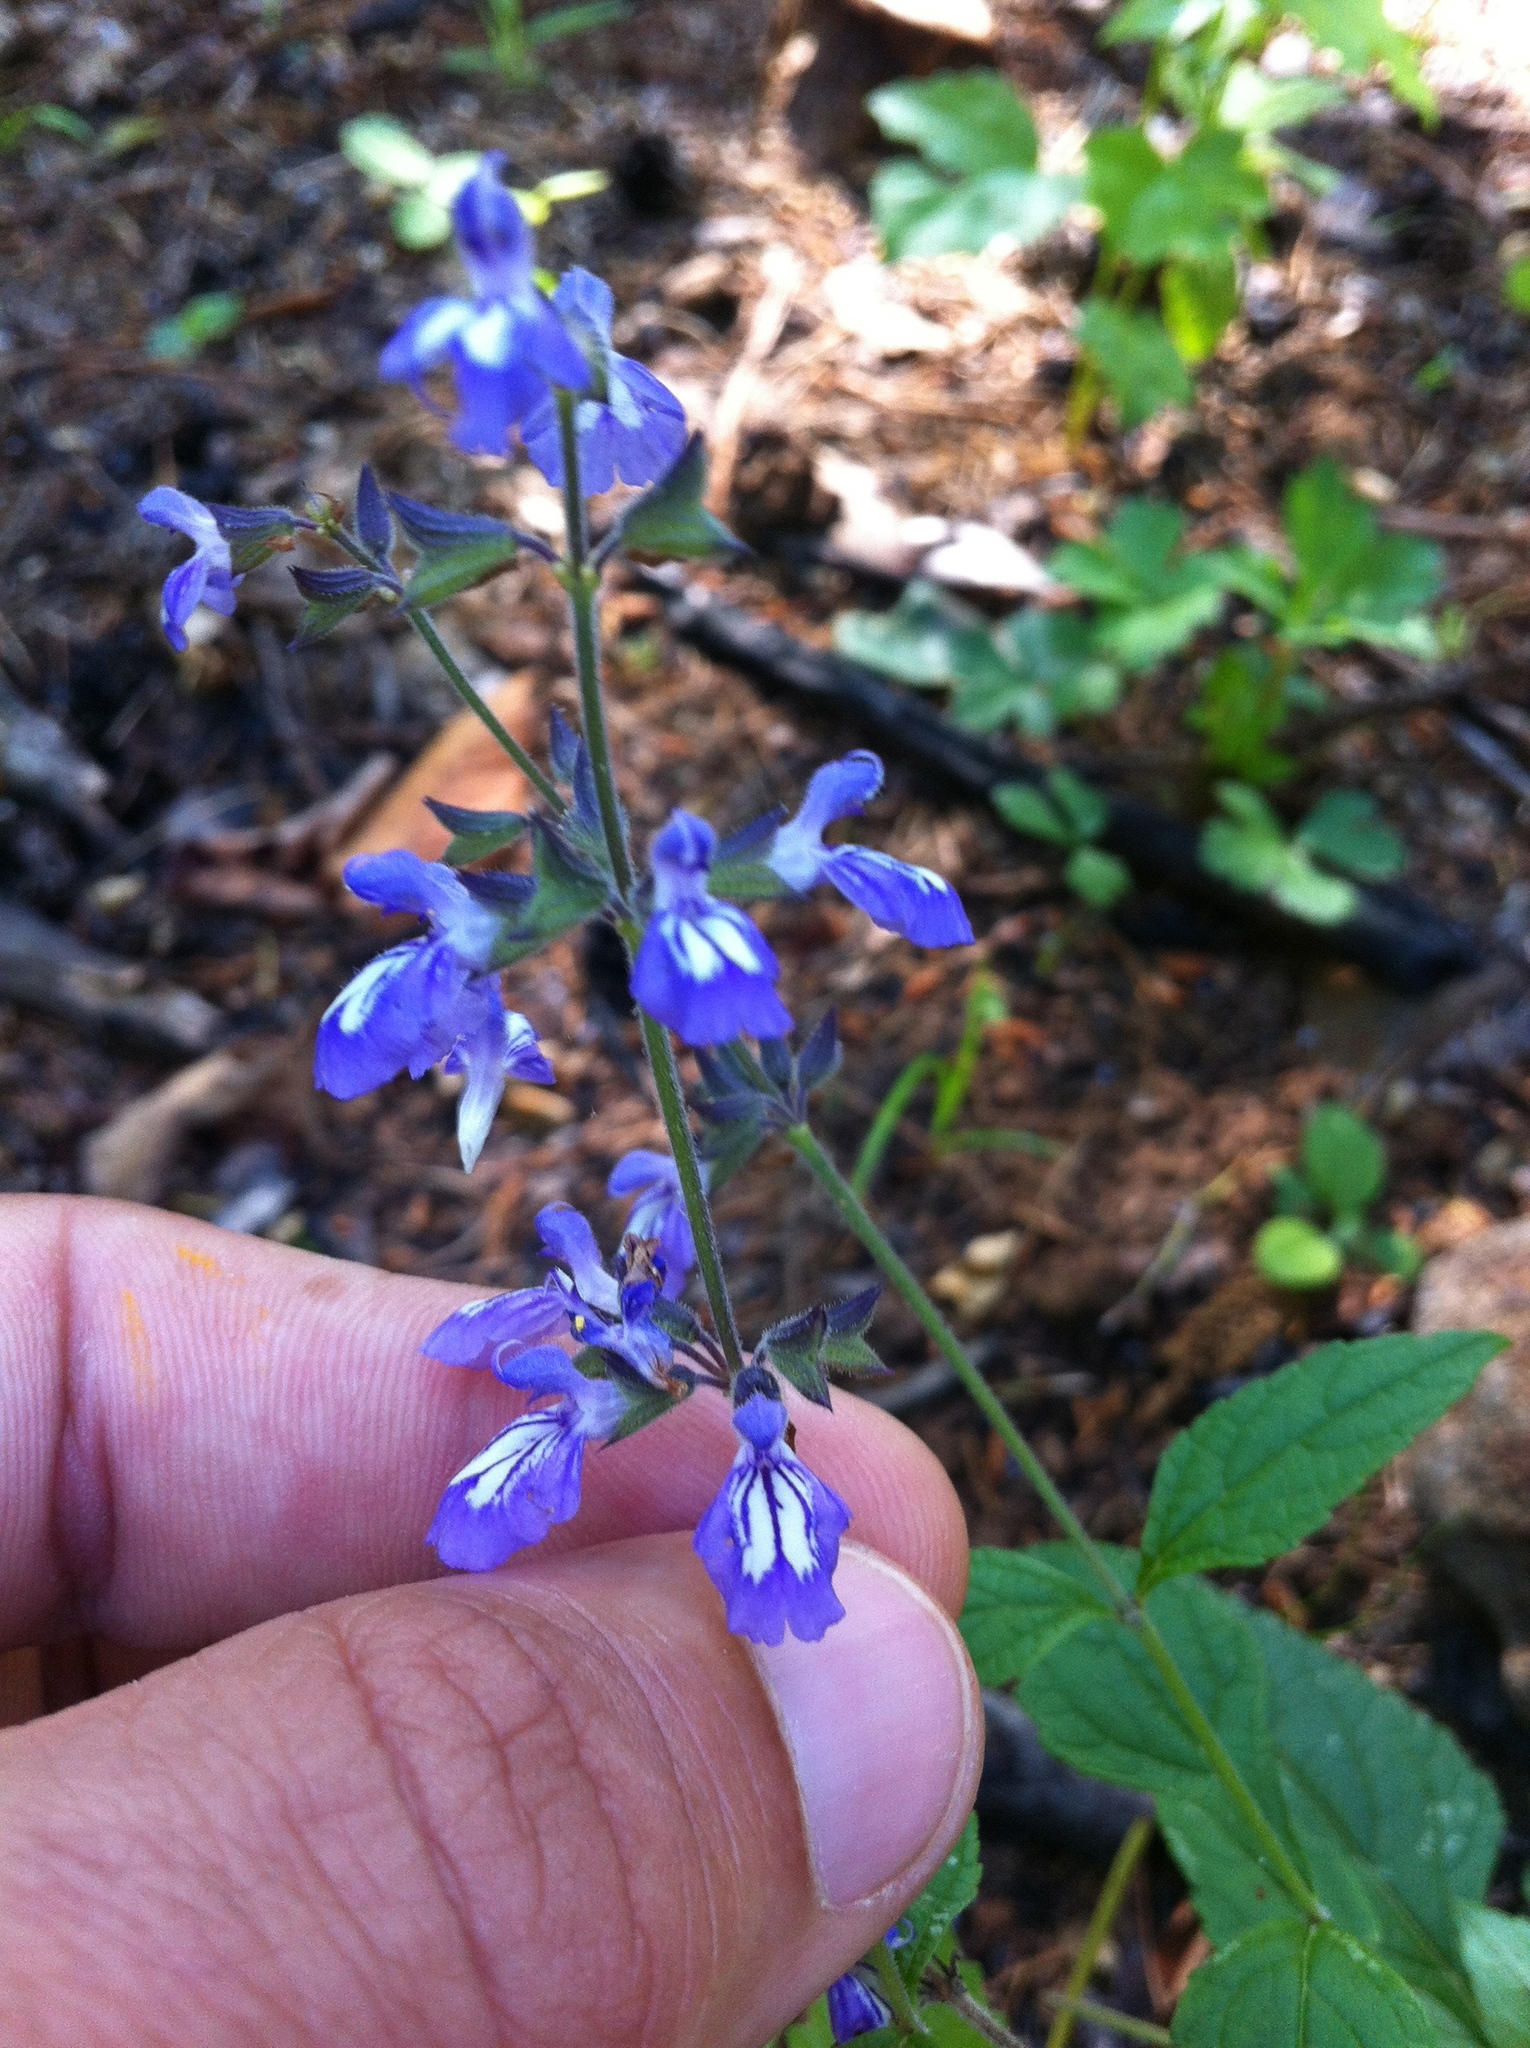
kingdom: Plantae
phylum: Tracheophyta
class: Magnoliopsida
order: Lamiales
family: Lamiaceae
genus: Salvia
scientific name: Salvia urticifolia
